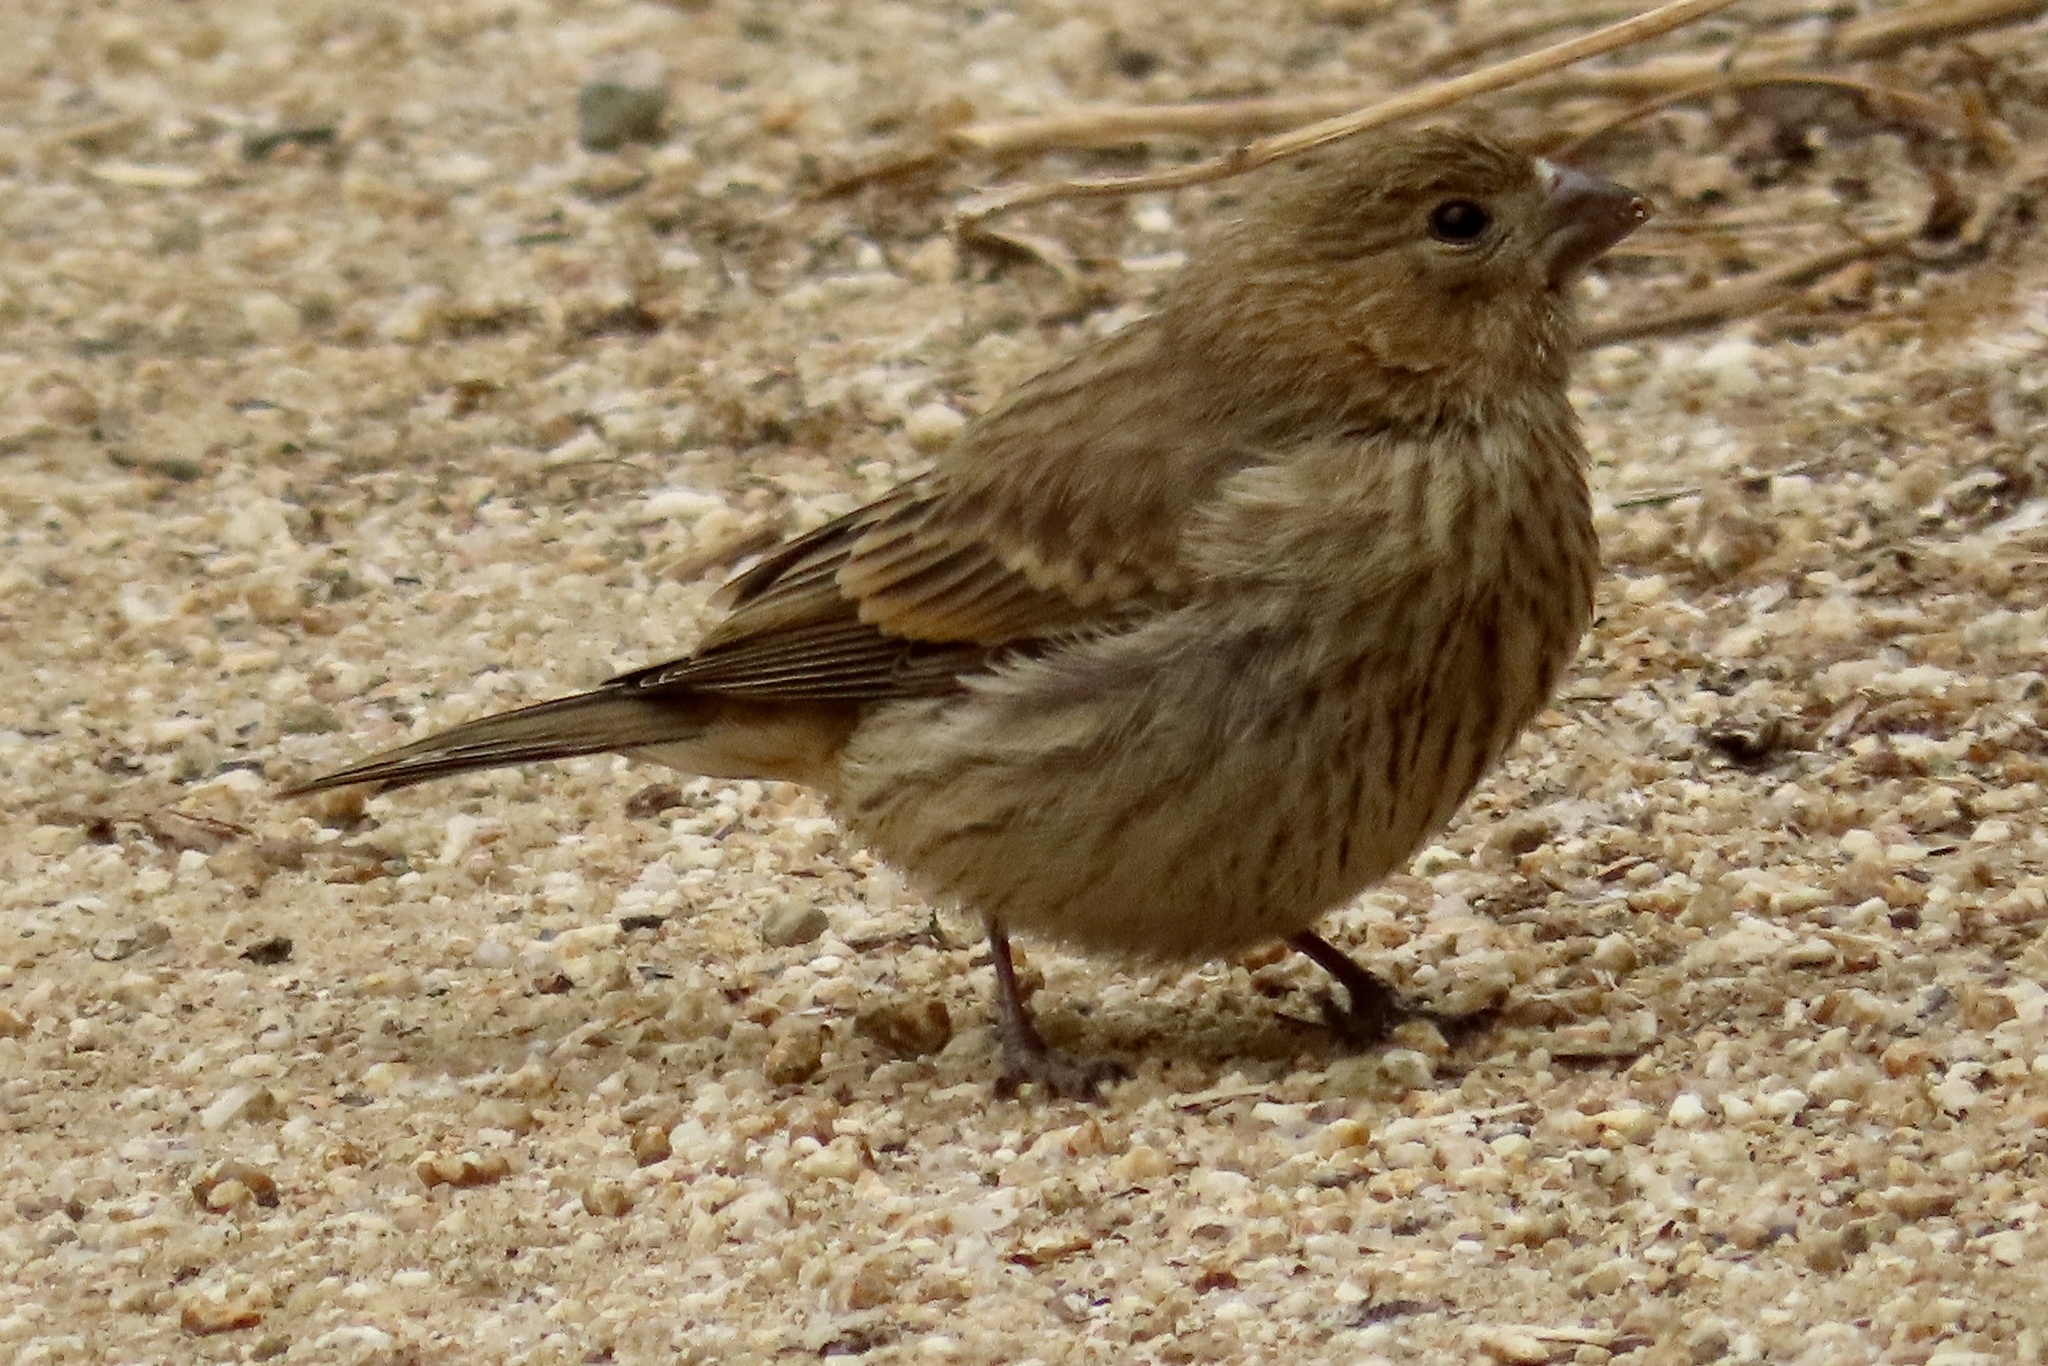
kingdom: Animalia
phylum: Chordata
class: Aves
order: Passeriformes
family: Fringillidae
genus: Haemorhous
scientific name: Haemorhous mexicanus
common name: House finch
